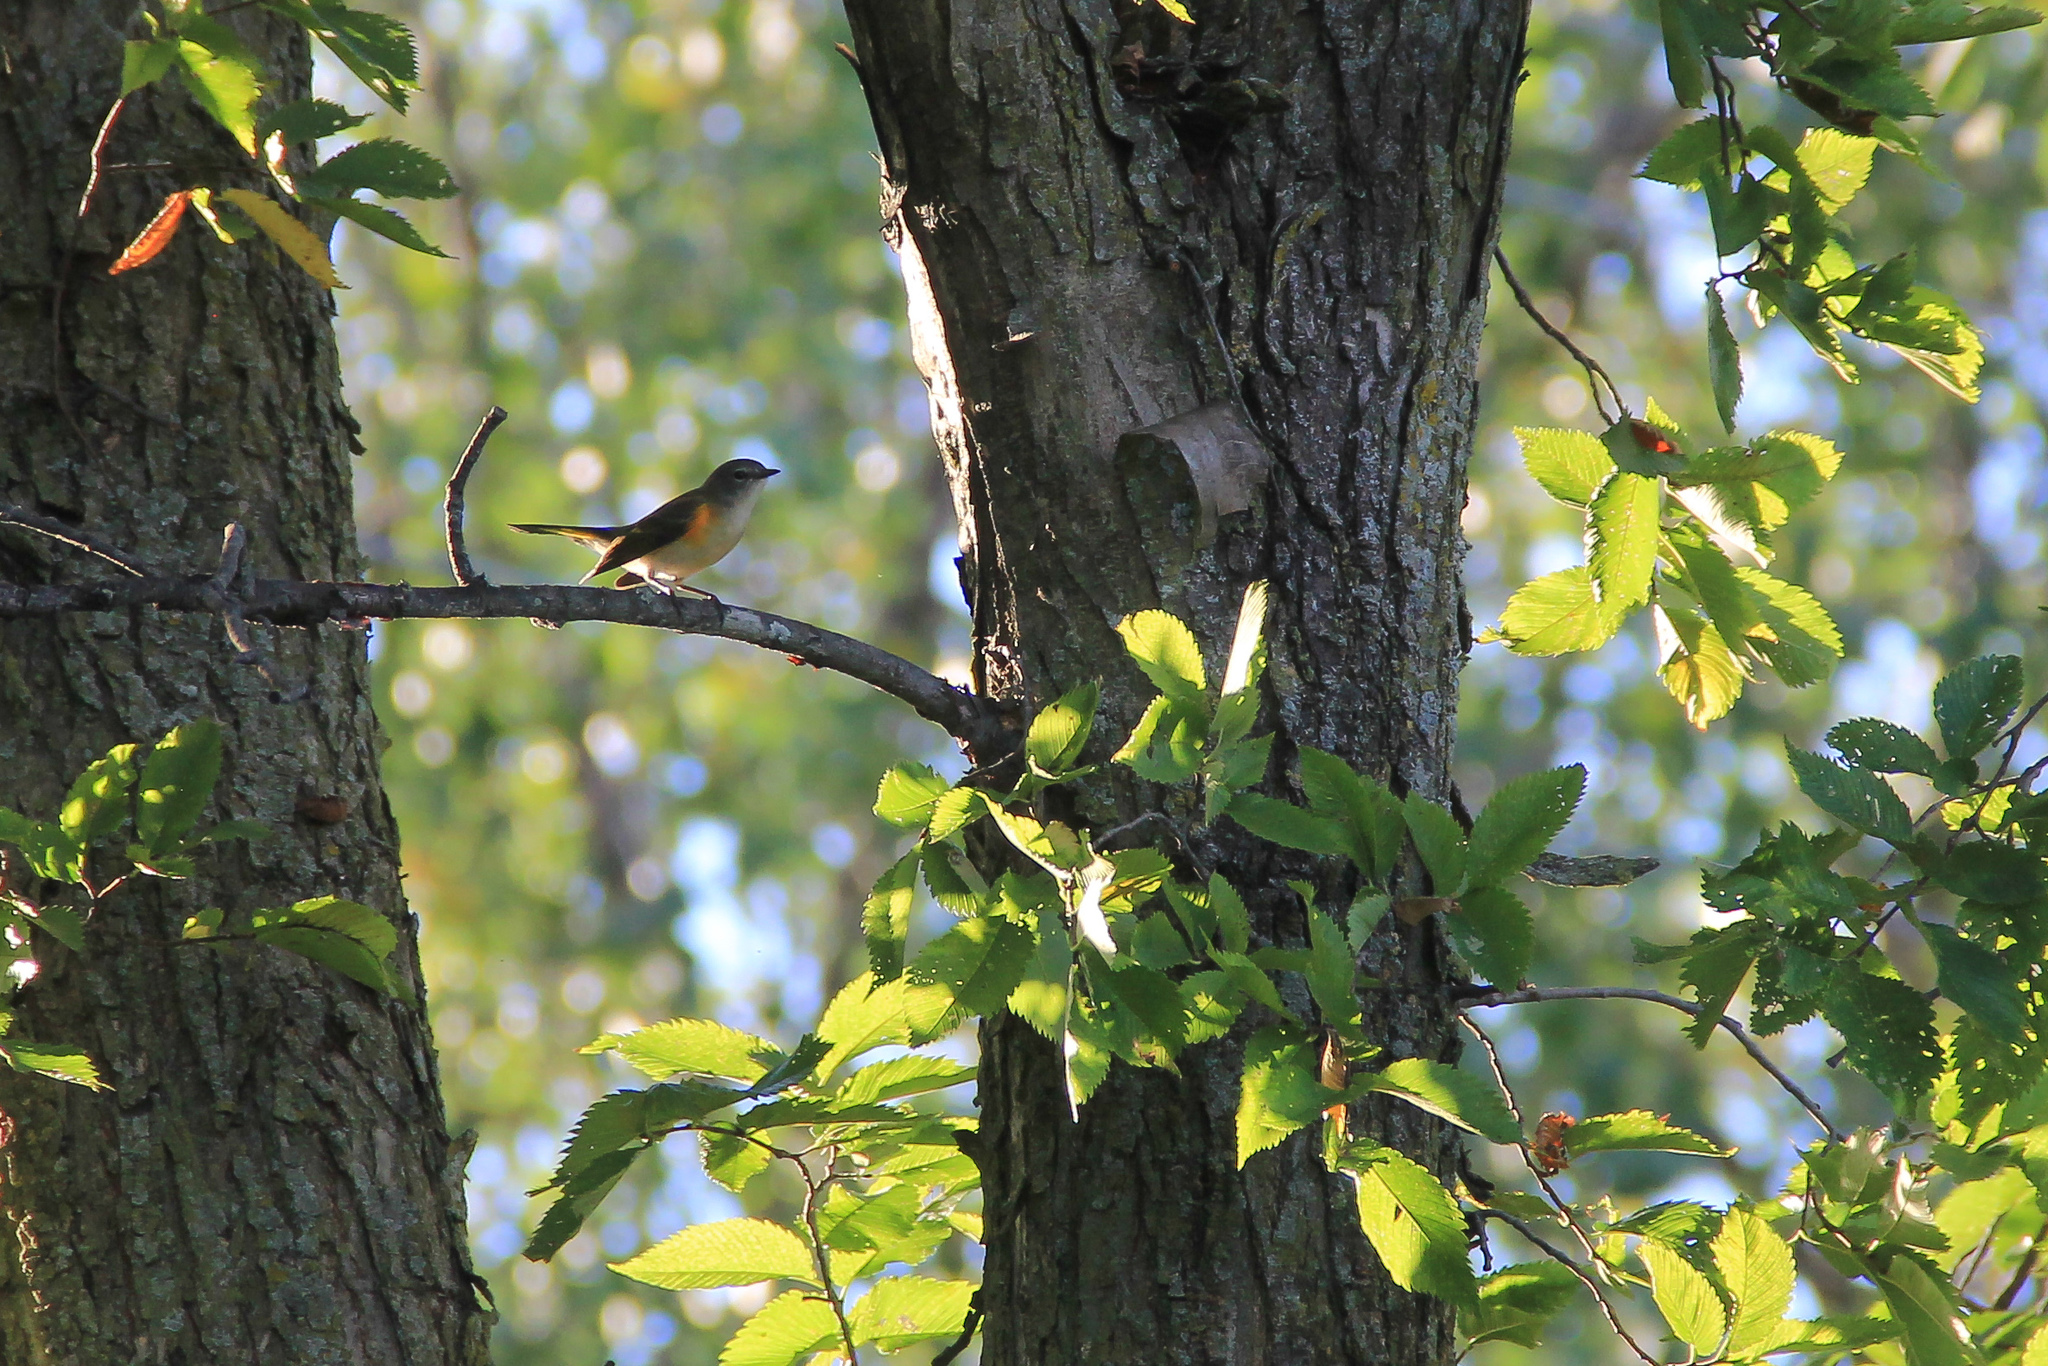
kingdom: Animalia
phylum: Chordata
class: Aves
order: Passeriformes
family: Parulidae
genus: Setophaga
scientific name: Setophaga ruticilla
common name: American redstart
